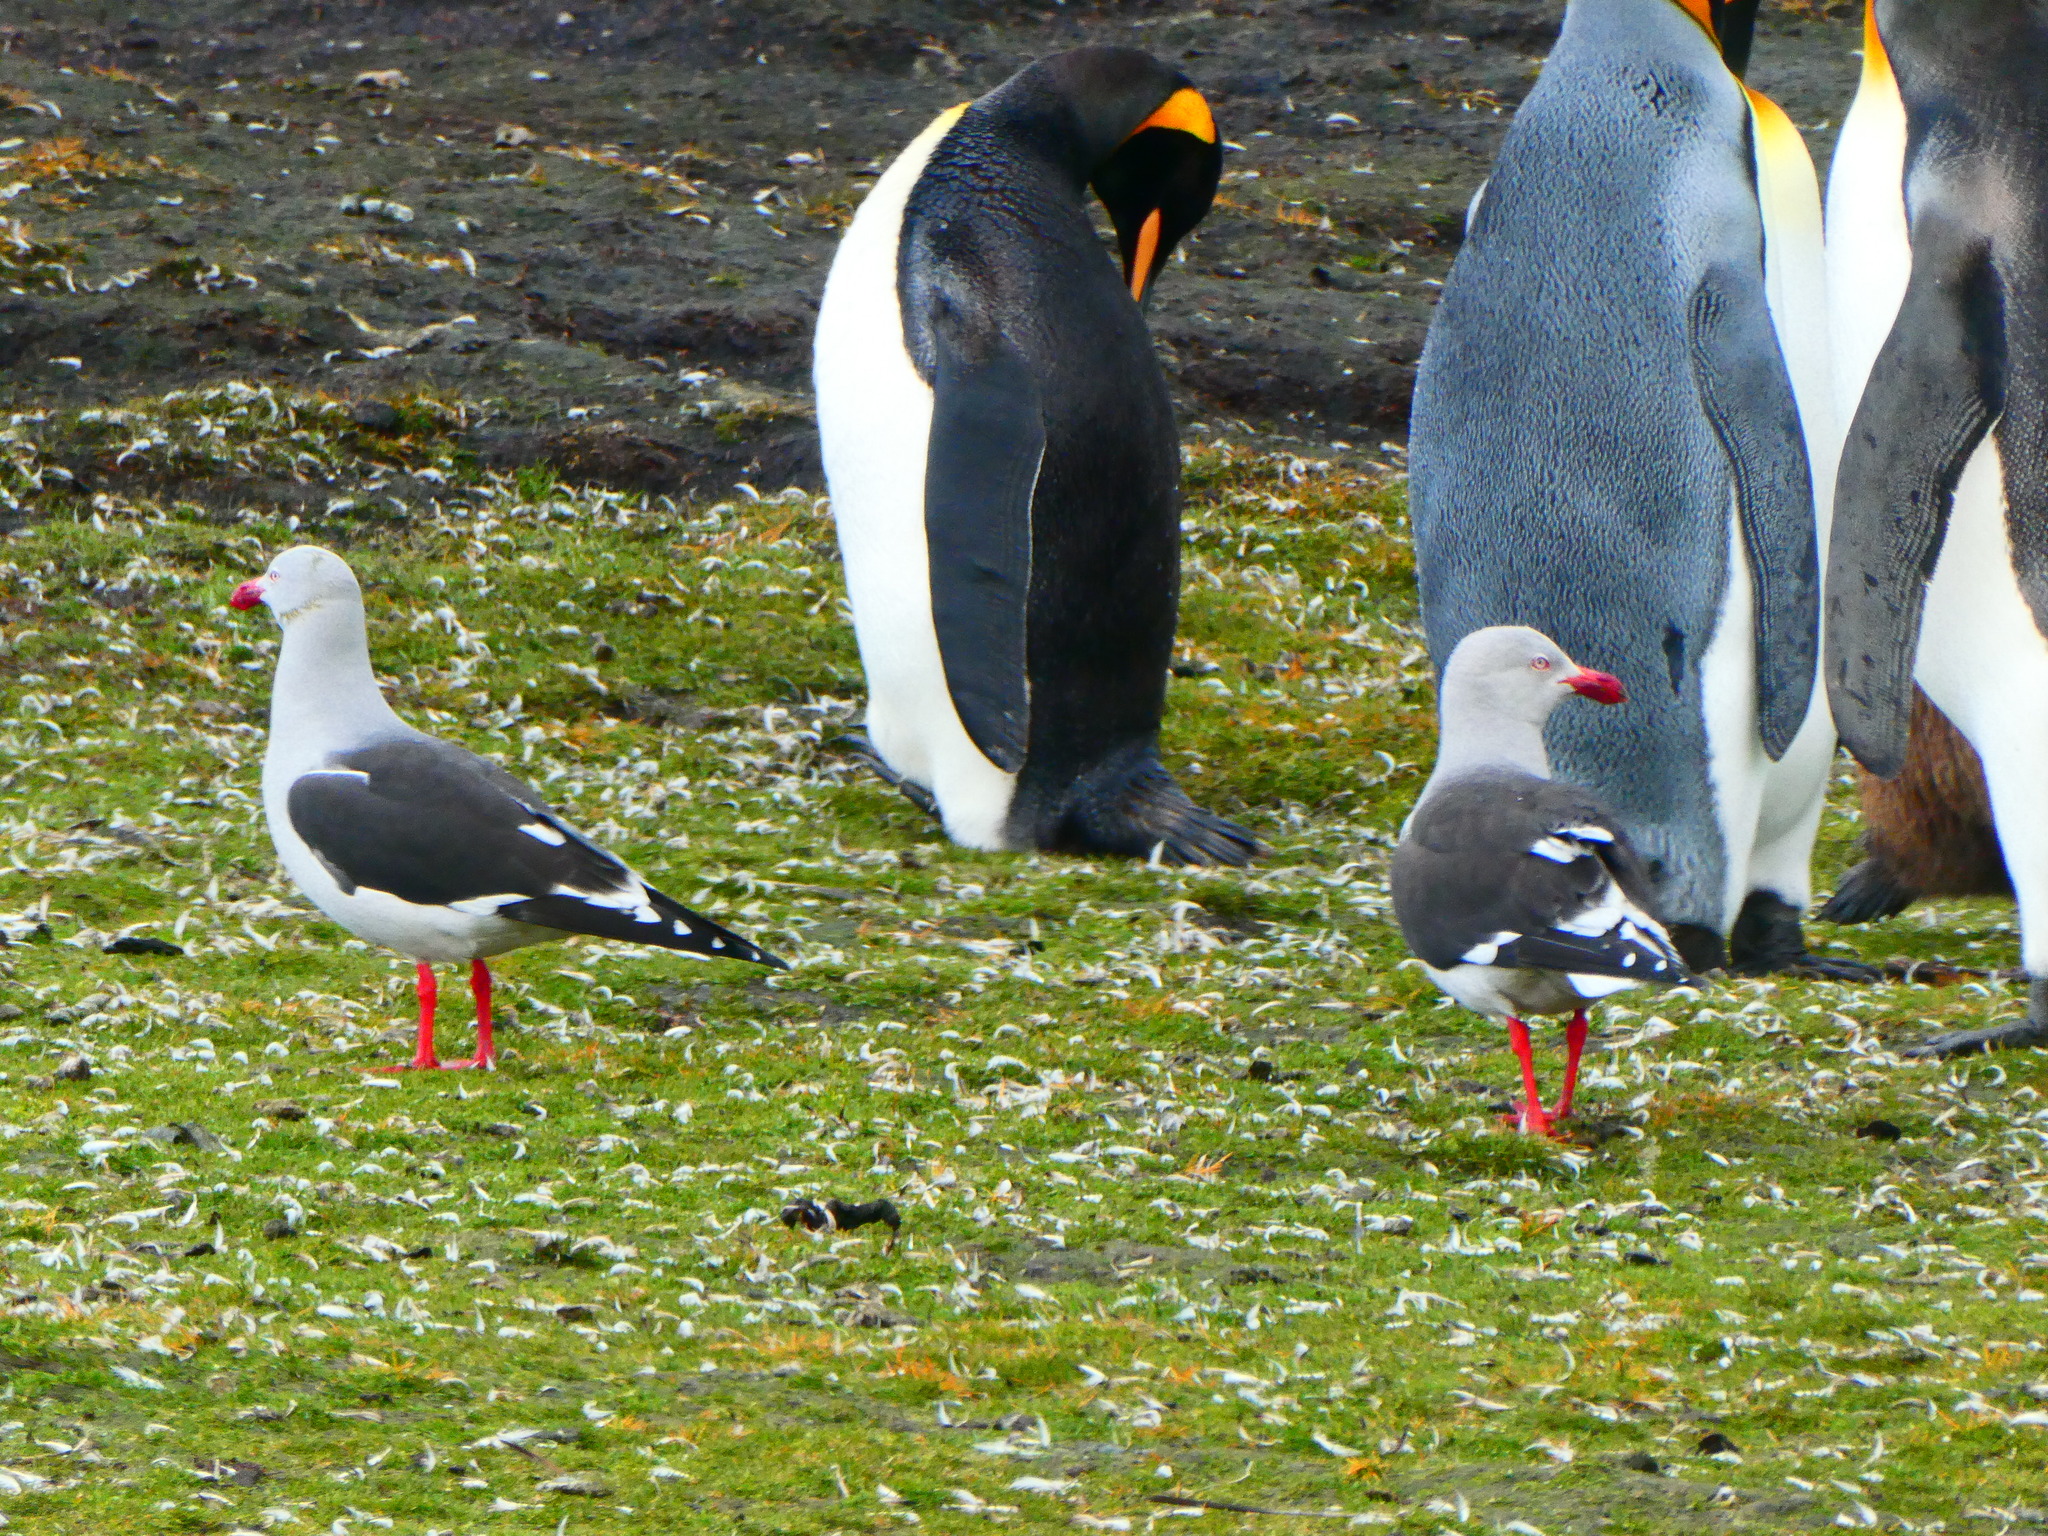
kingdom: Animalia
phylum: Chordata
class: Aves
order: Charadriiformes
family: Laridae
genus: Leucophaeus
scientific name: Leucophaeus scoresbii
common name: Dolphin gull
